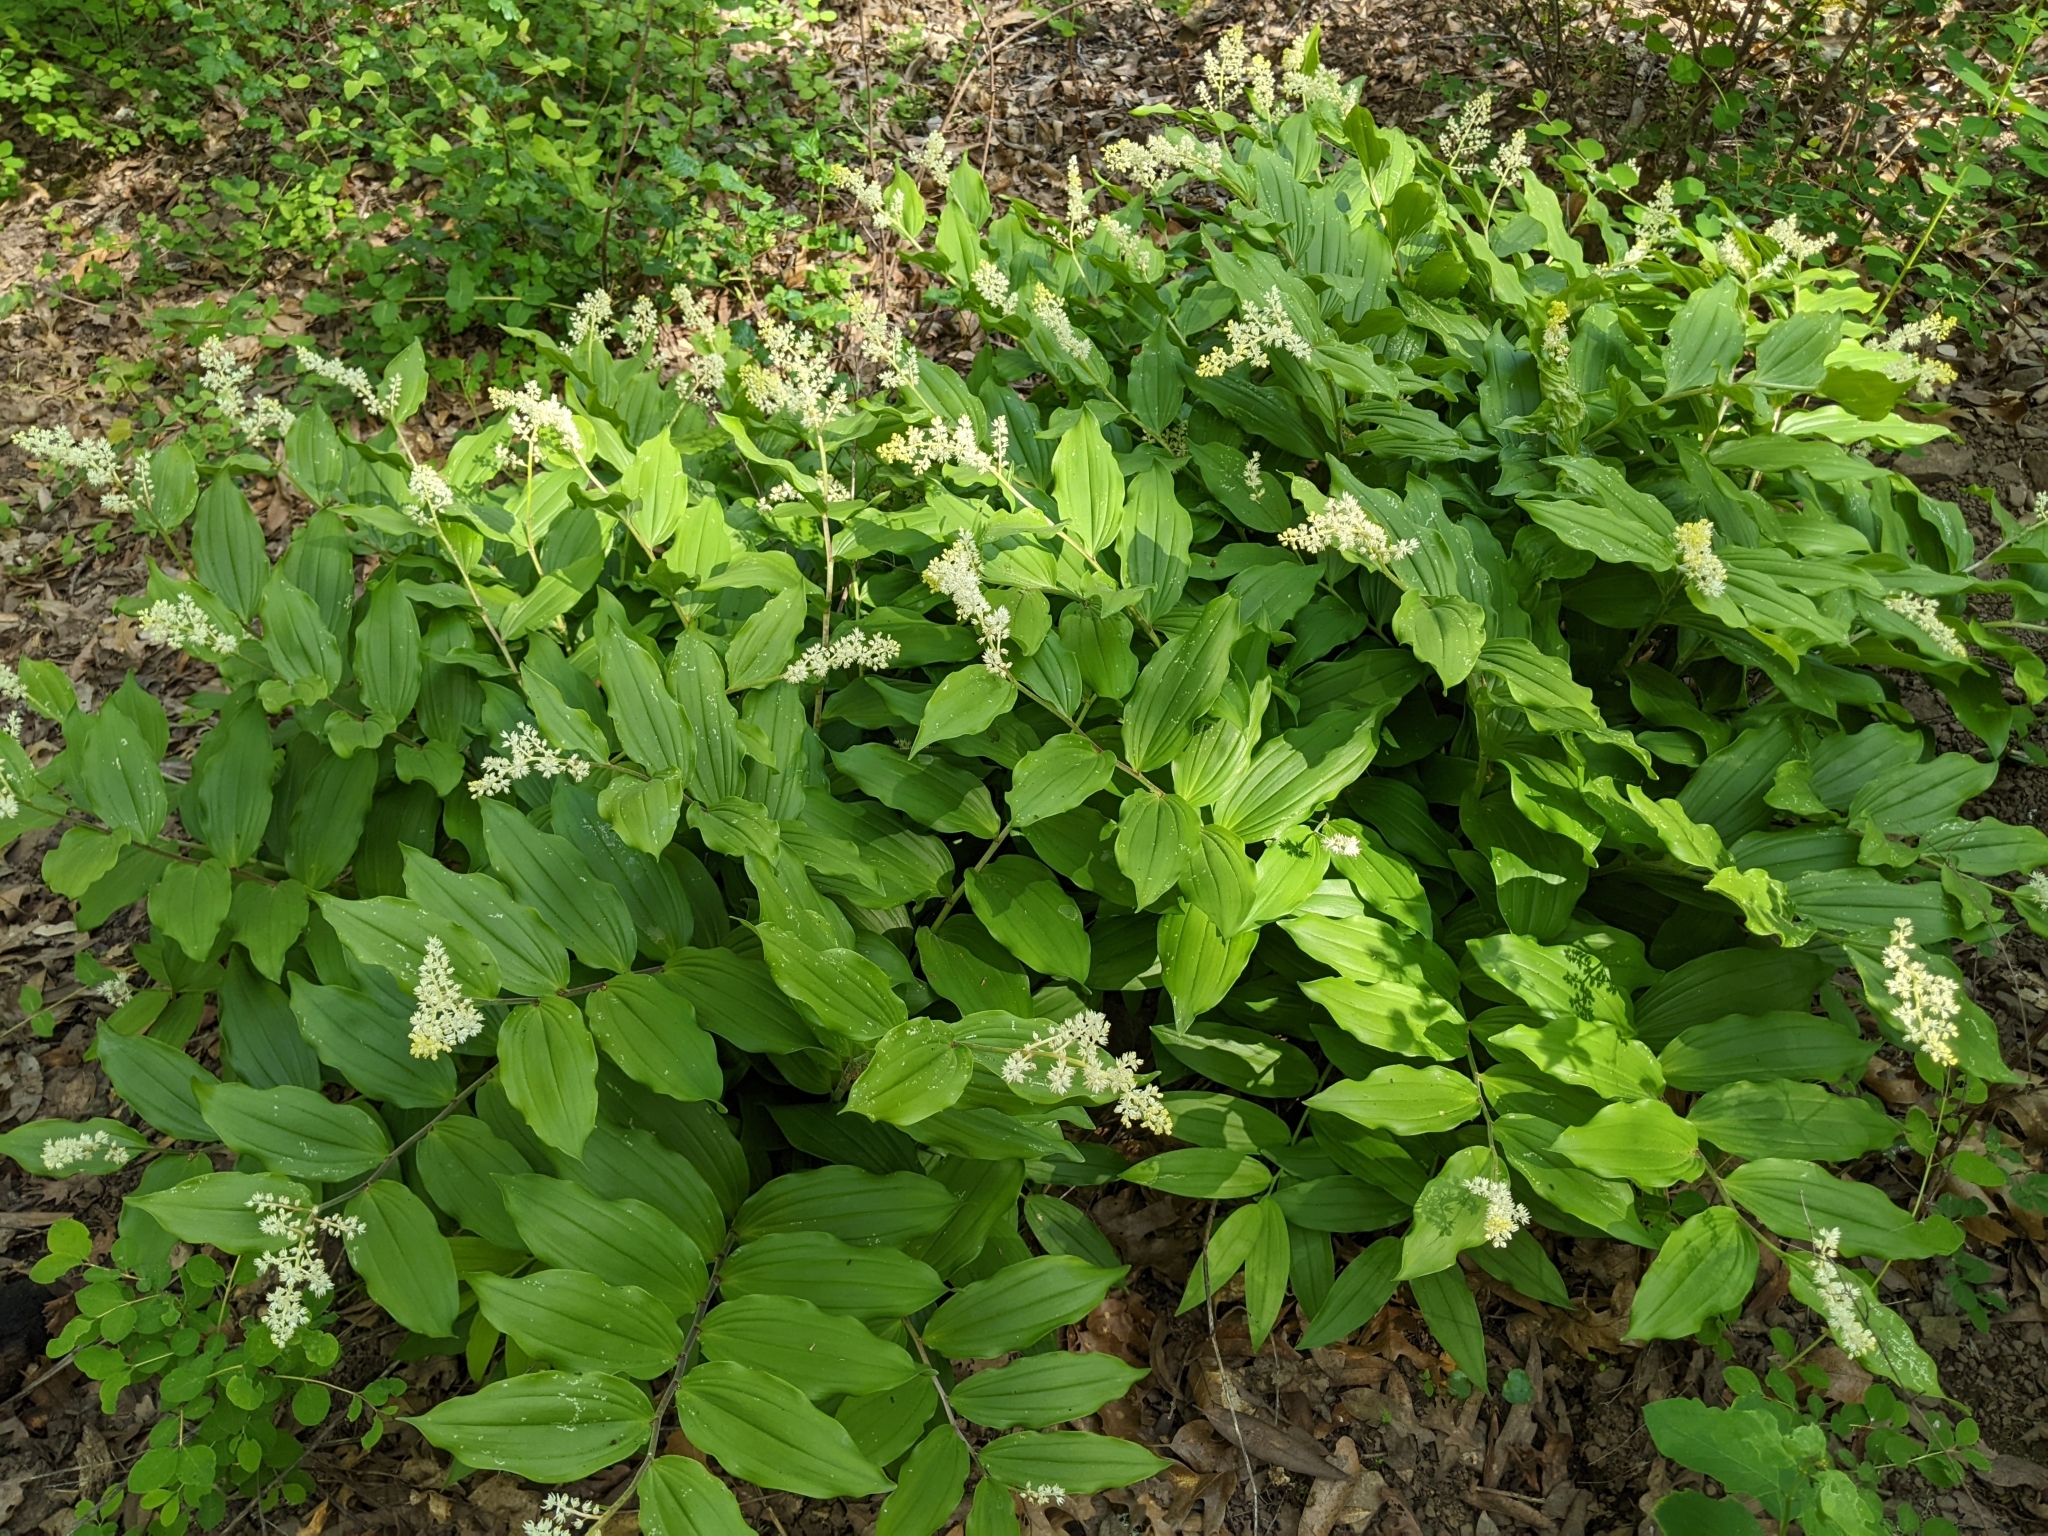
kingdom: Plantae
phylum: Tracheophyta
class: Liliopsida
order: Asparagales
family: Asparagaceae
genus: Maianthemum
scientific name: Maianthemum racemosum
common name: False spikenard
